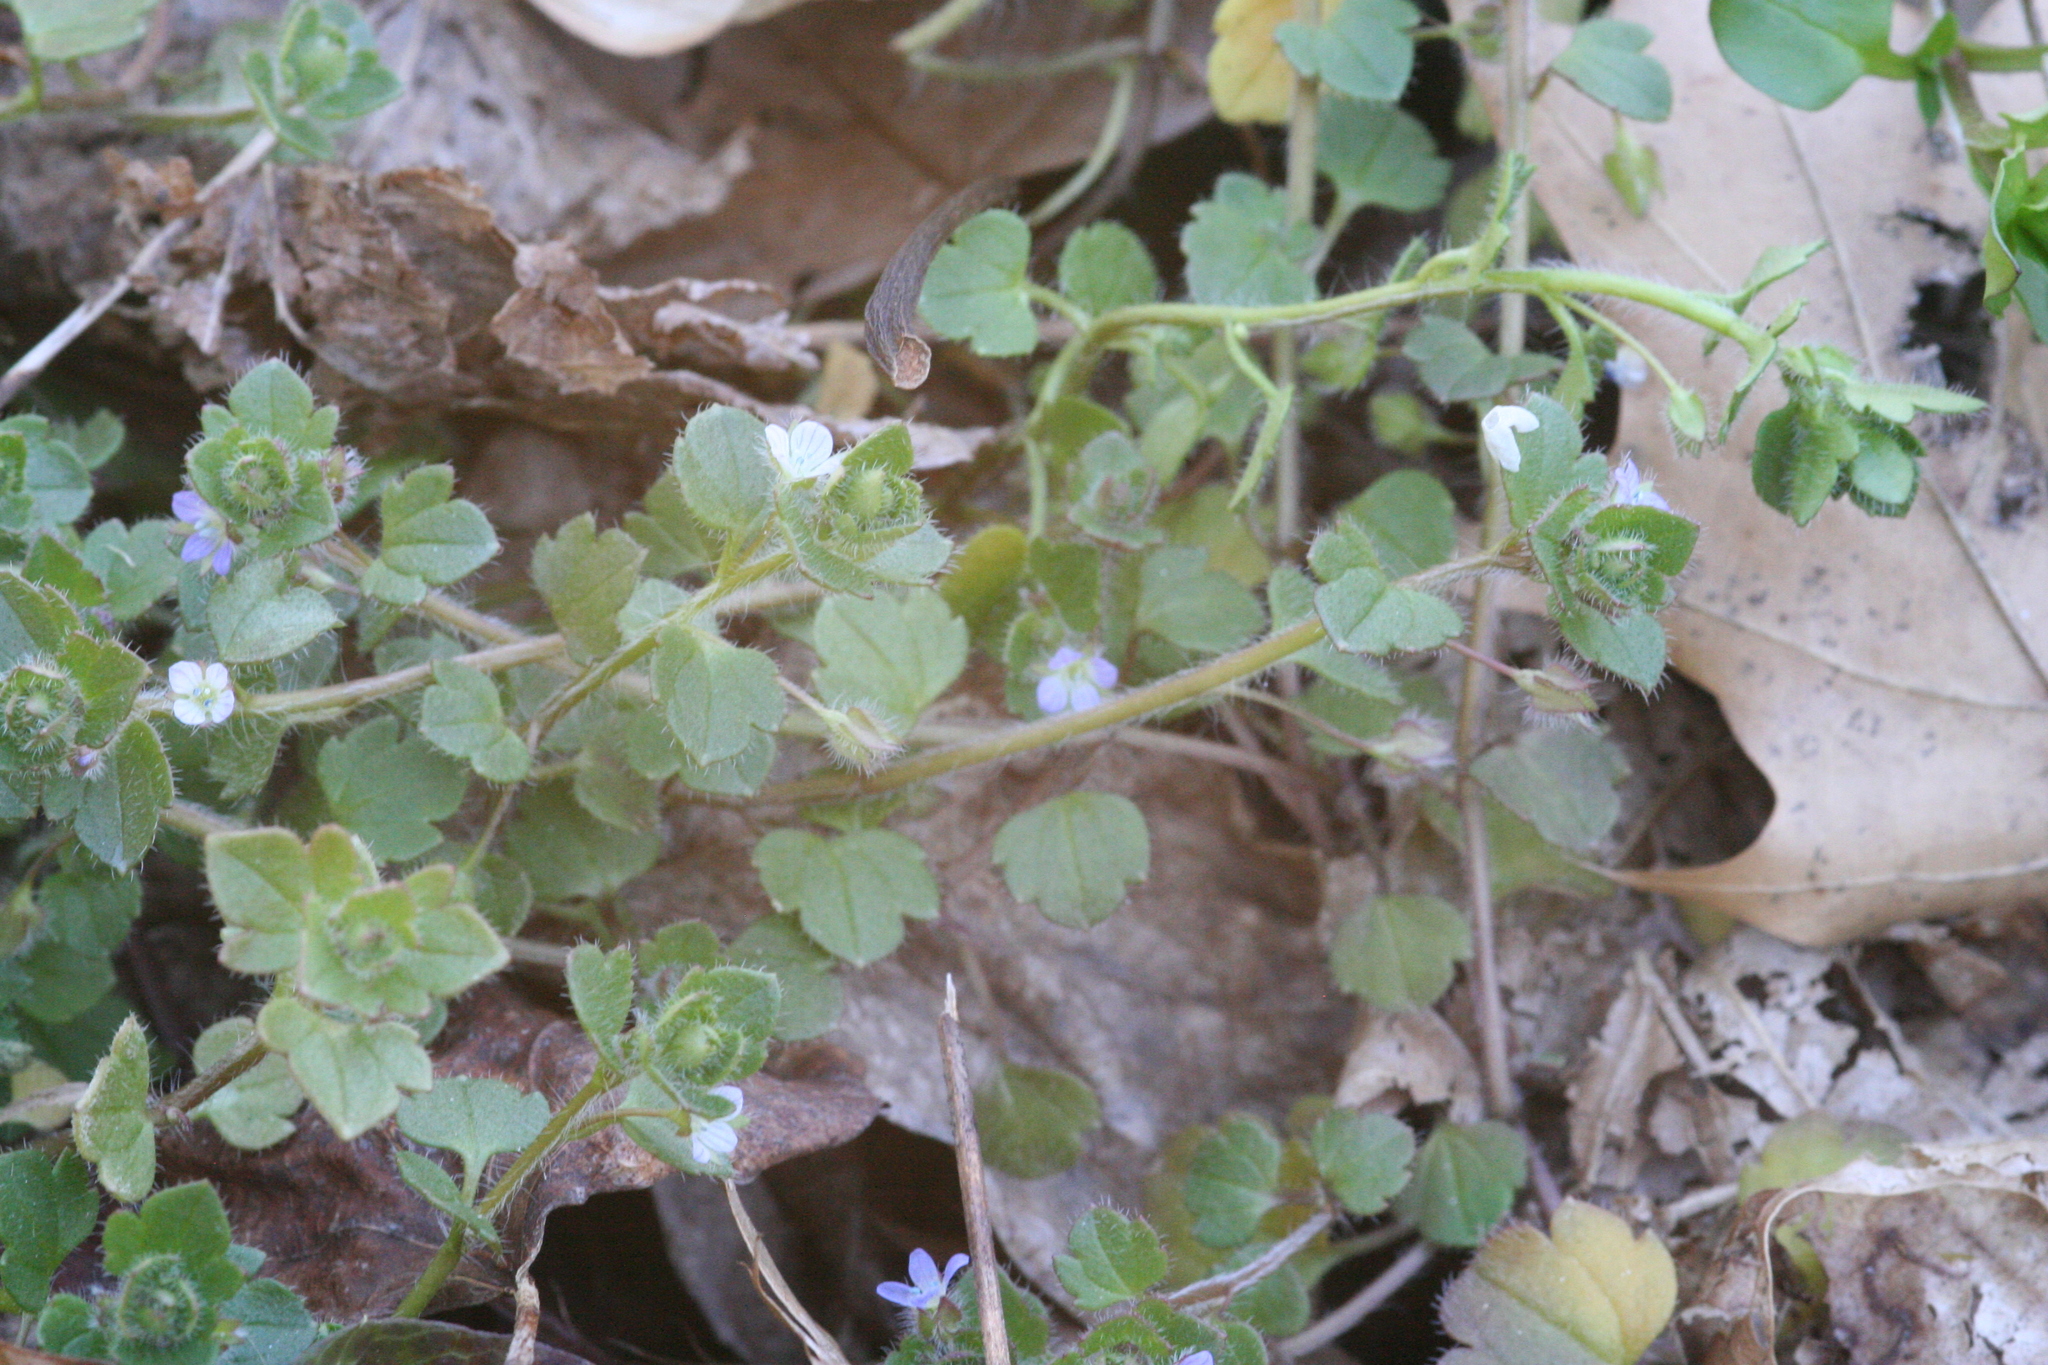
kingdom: Plantae
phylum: Tracheophyta
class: Magnoliopsida
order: Lamiales
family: Plantaginaceae
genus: Veronica
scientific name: Veronica hederifolia
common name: Ivy-leaved speedwell
